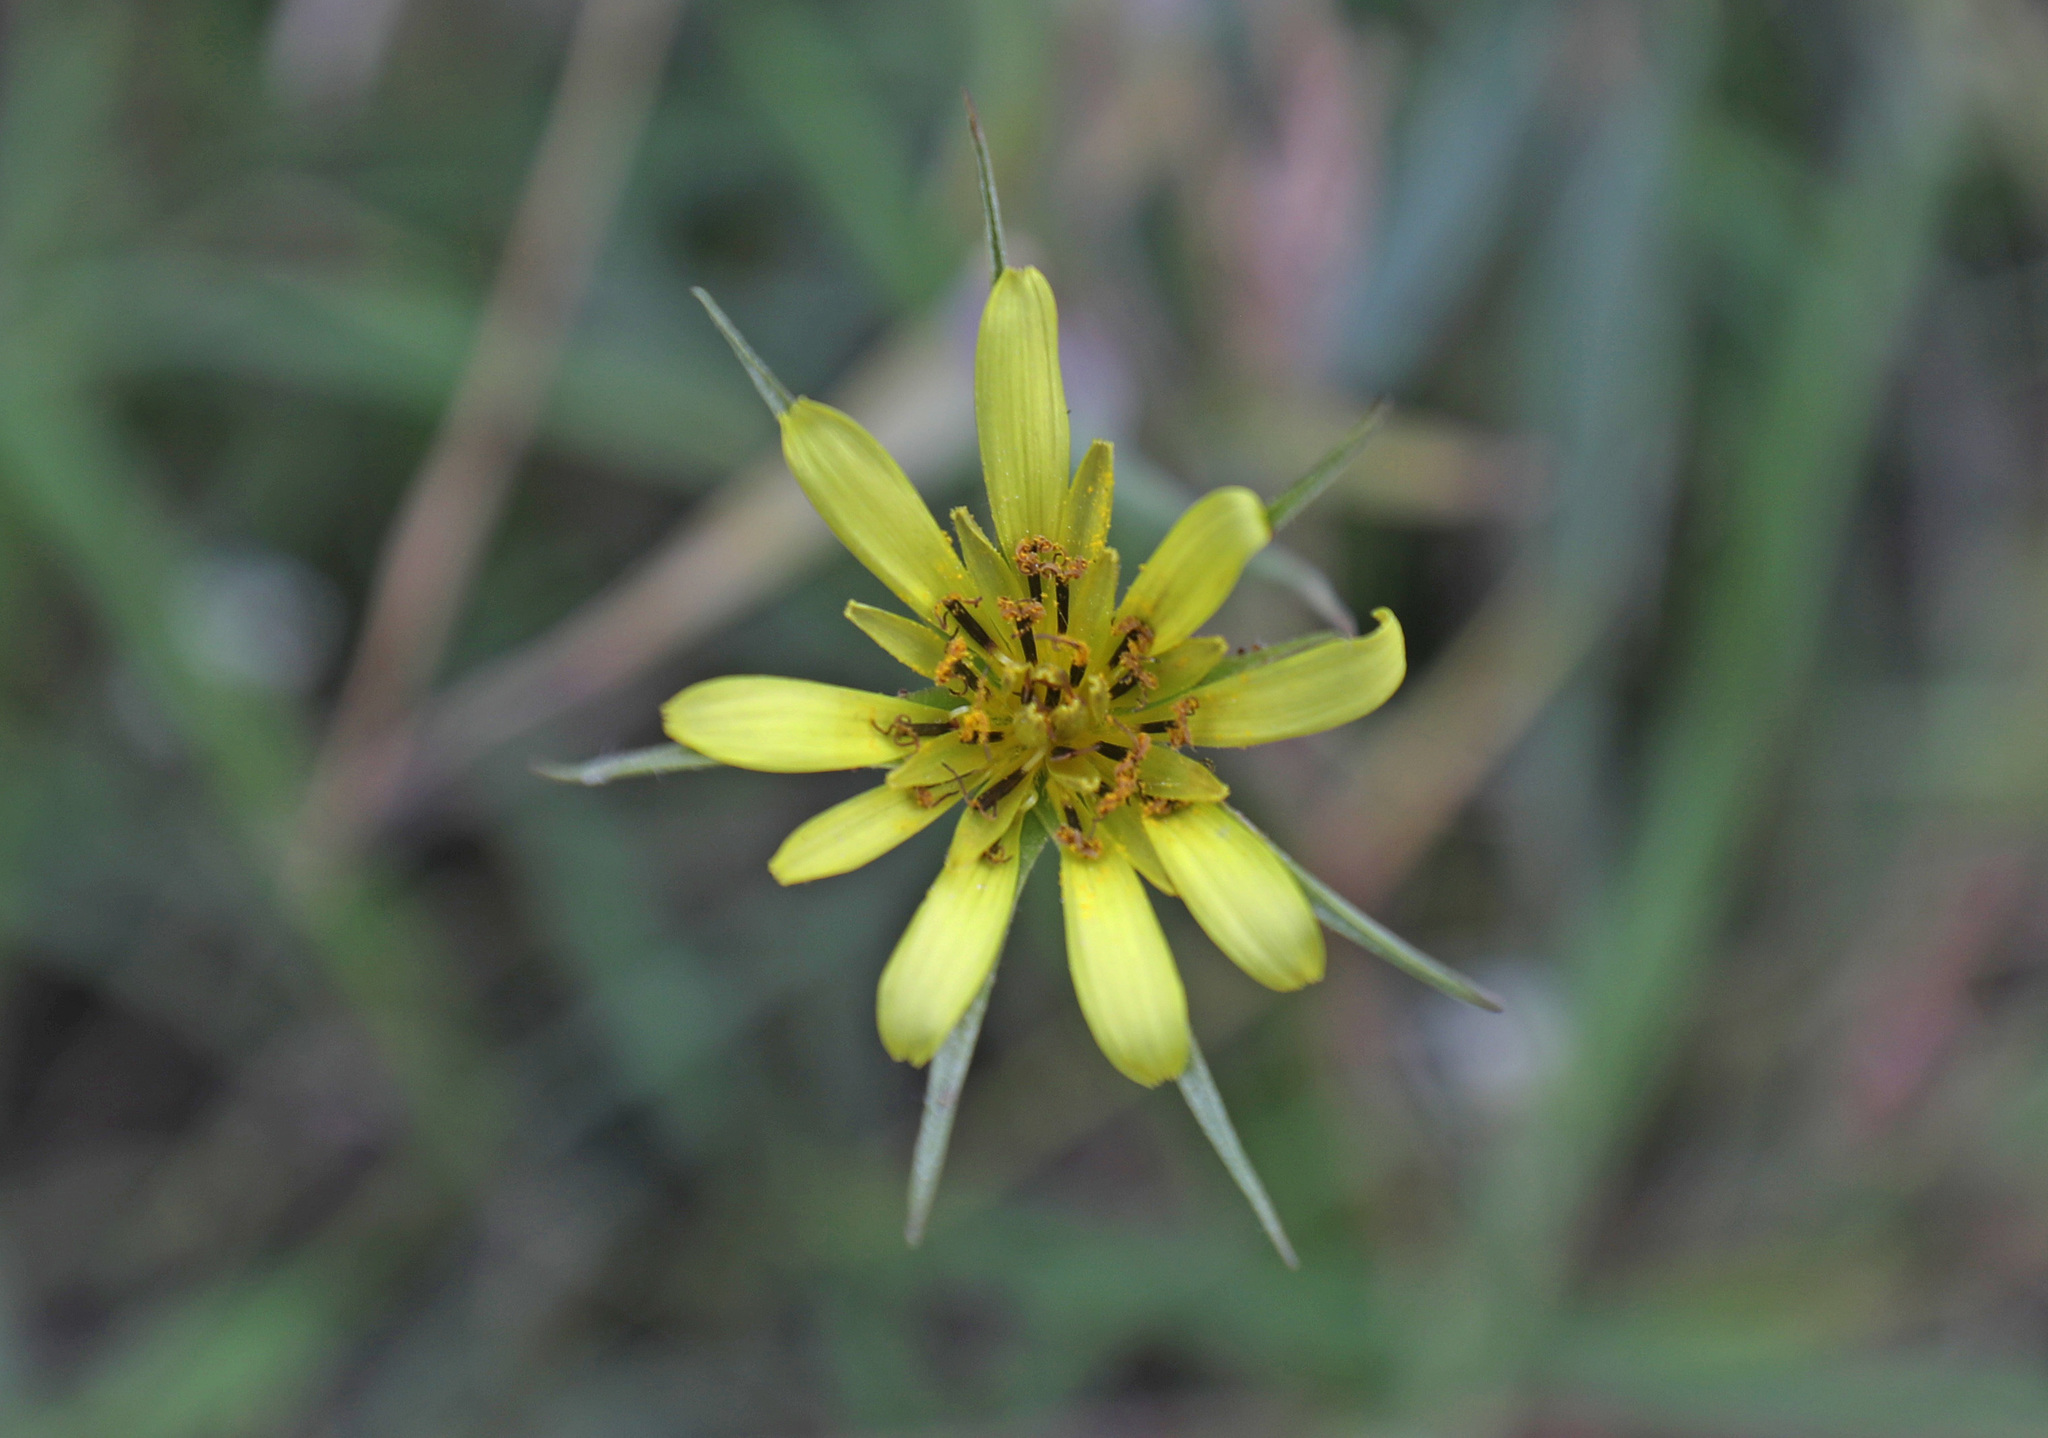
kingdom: Plantae
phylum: Tracheophyta
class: Magnoliopsida
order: Asterales
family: Asteraceae
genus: Tragopogon
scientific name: Tragopogon dubius
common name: Yellow salsify
